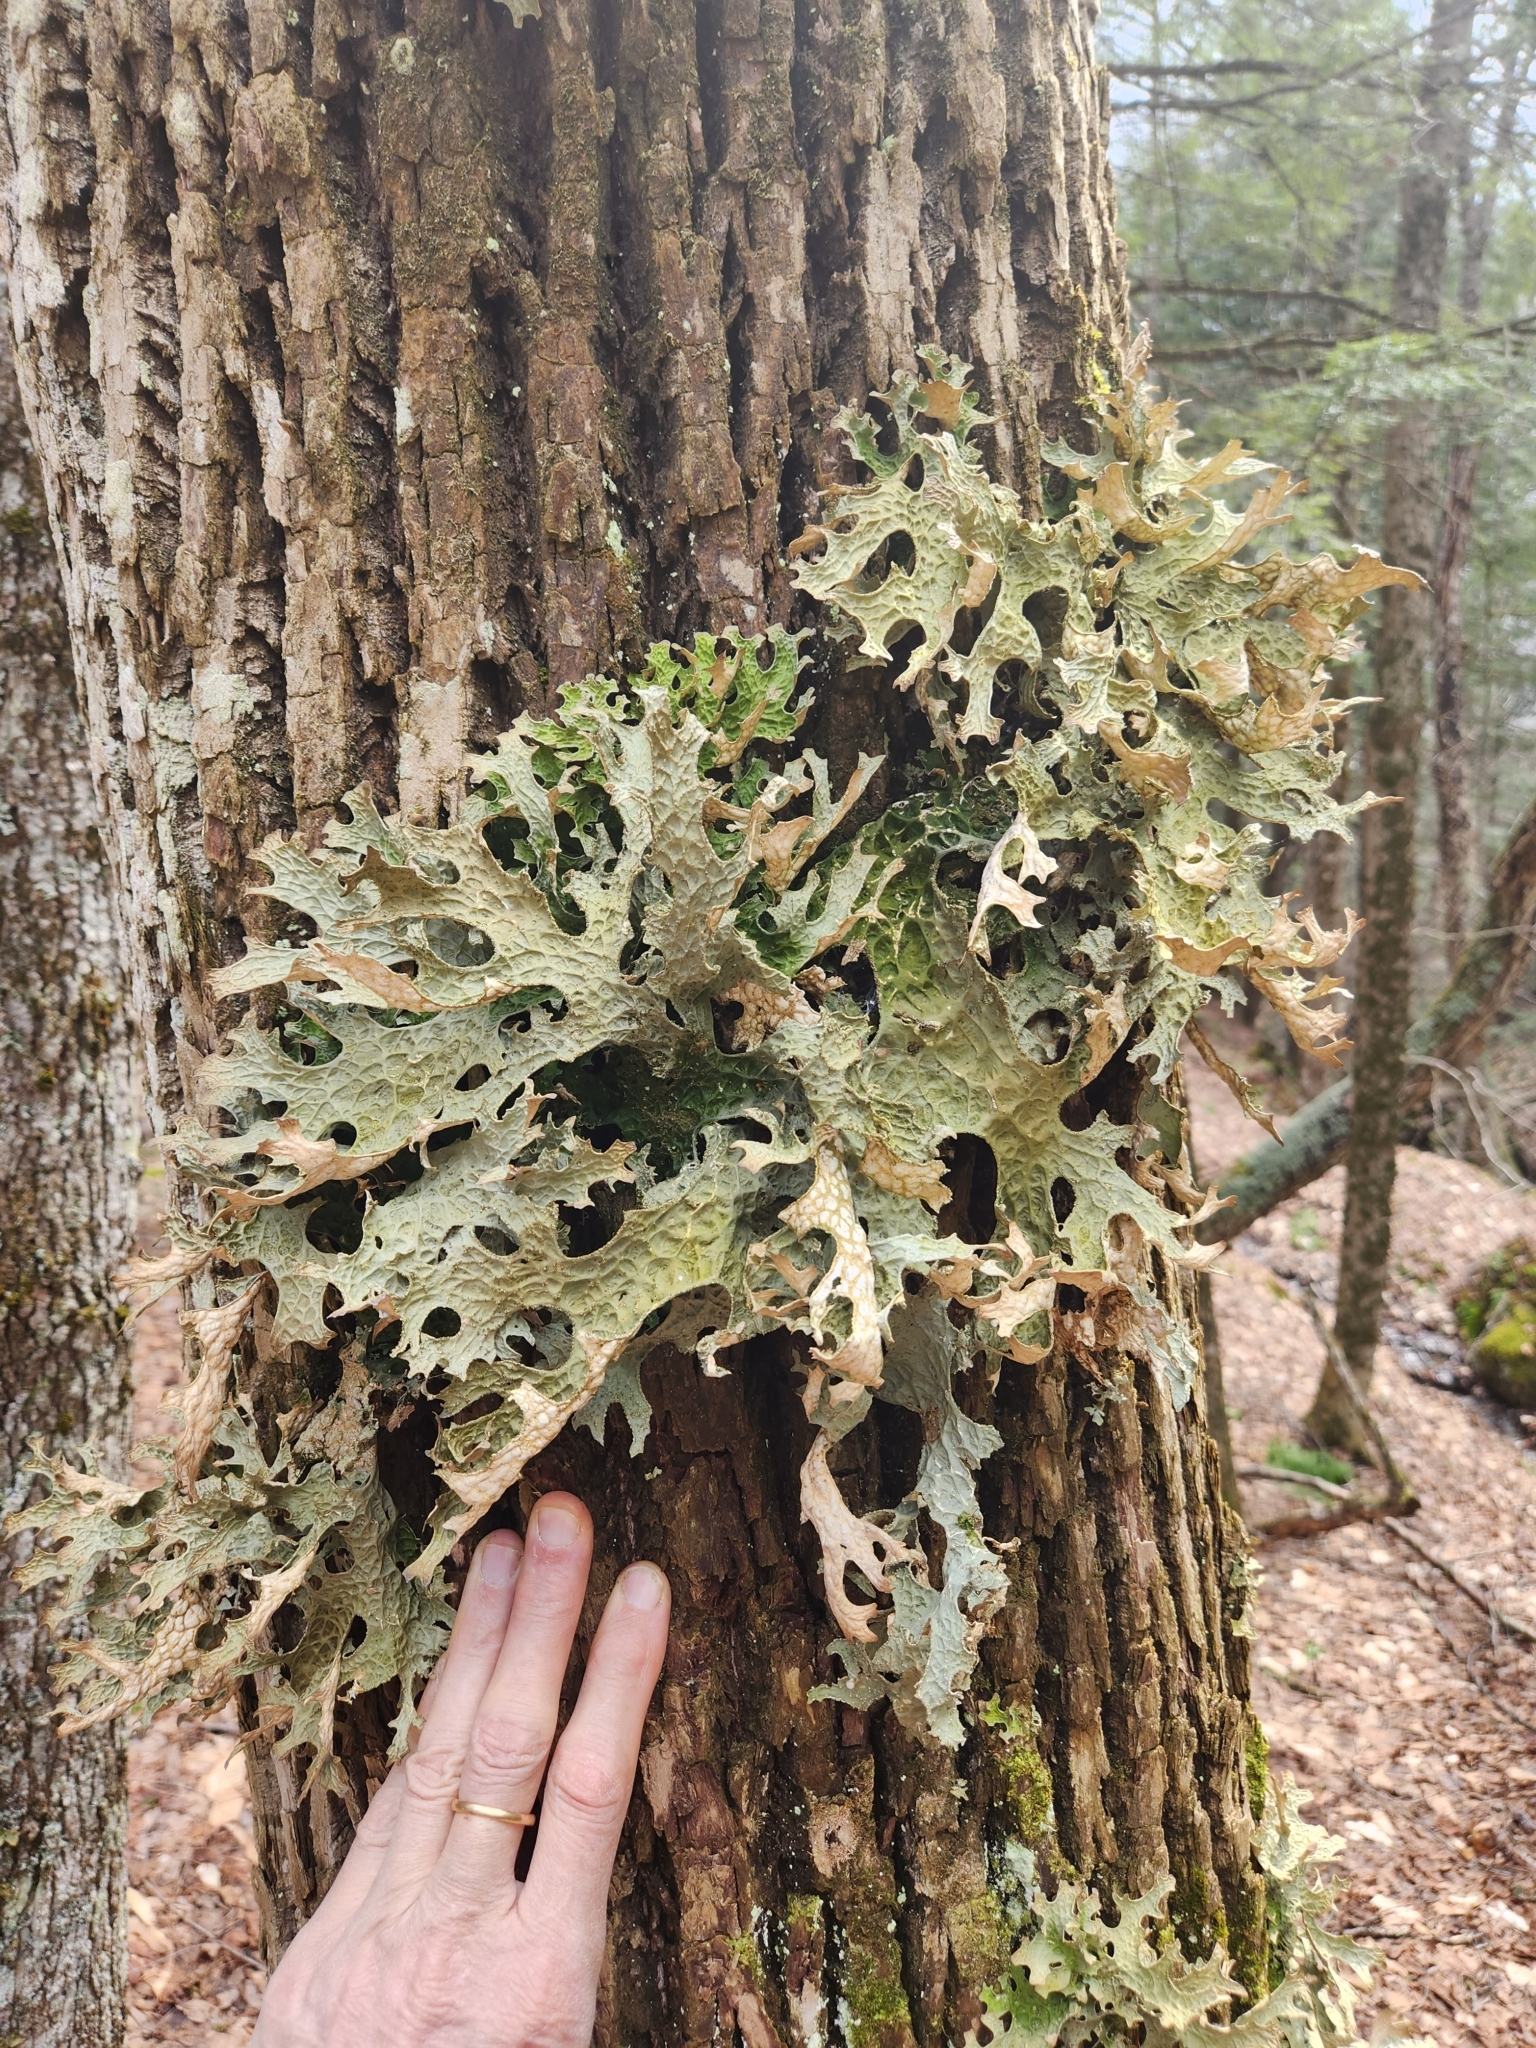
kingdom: Fungi
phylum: Ascomycota
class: Lecanoromycetes
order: Peltigerales
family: Lobariaceae
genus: Lobaria
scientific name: Lobaria pulmonaria
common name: Lungwort
